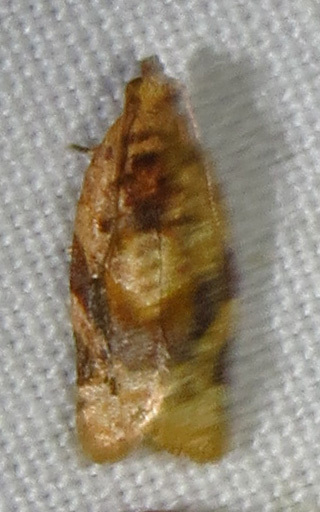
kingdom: Animalia
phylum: Arthropoda
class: Insecta
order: Lepidoptera
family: Tortricidae
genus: Argyrotaenia
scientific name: Argyrotaenia velutinana
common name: Red-banded leafroller moth
